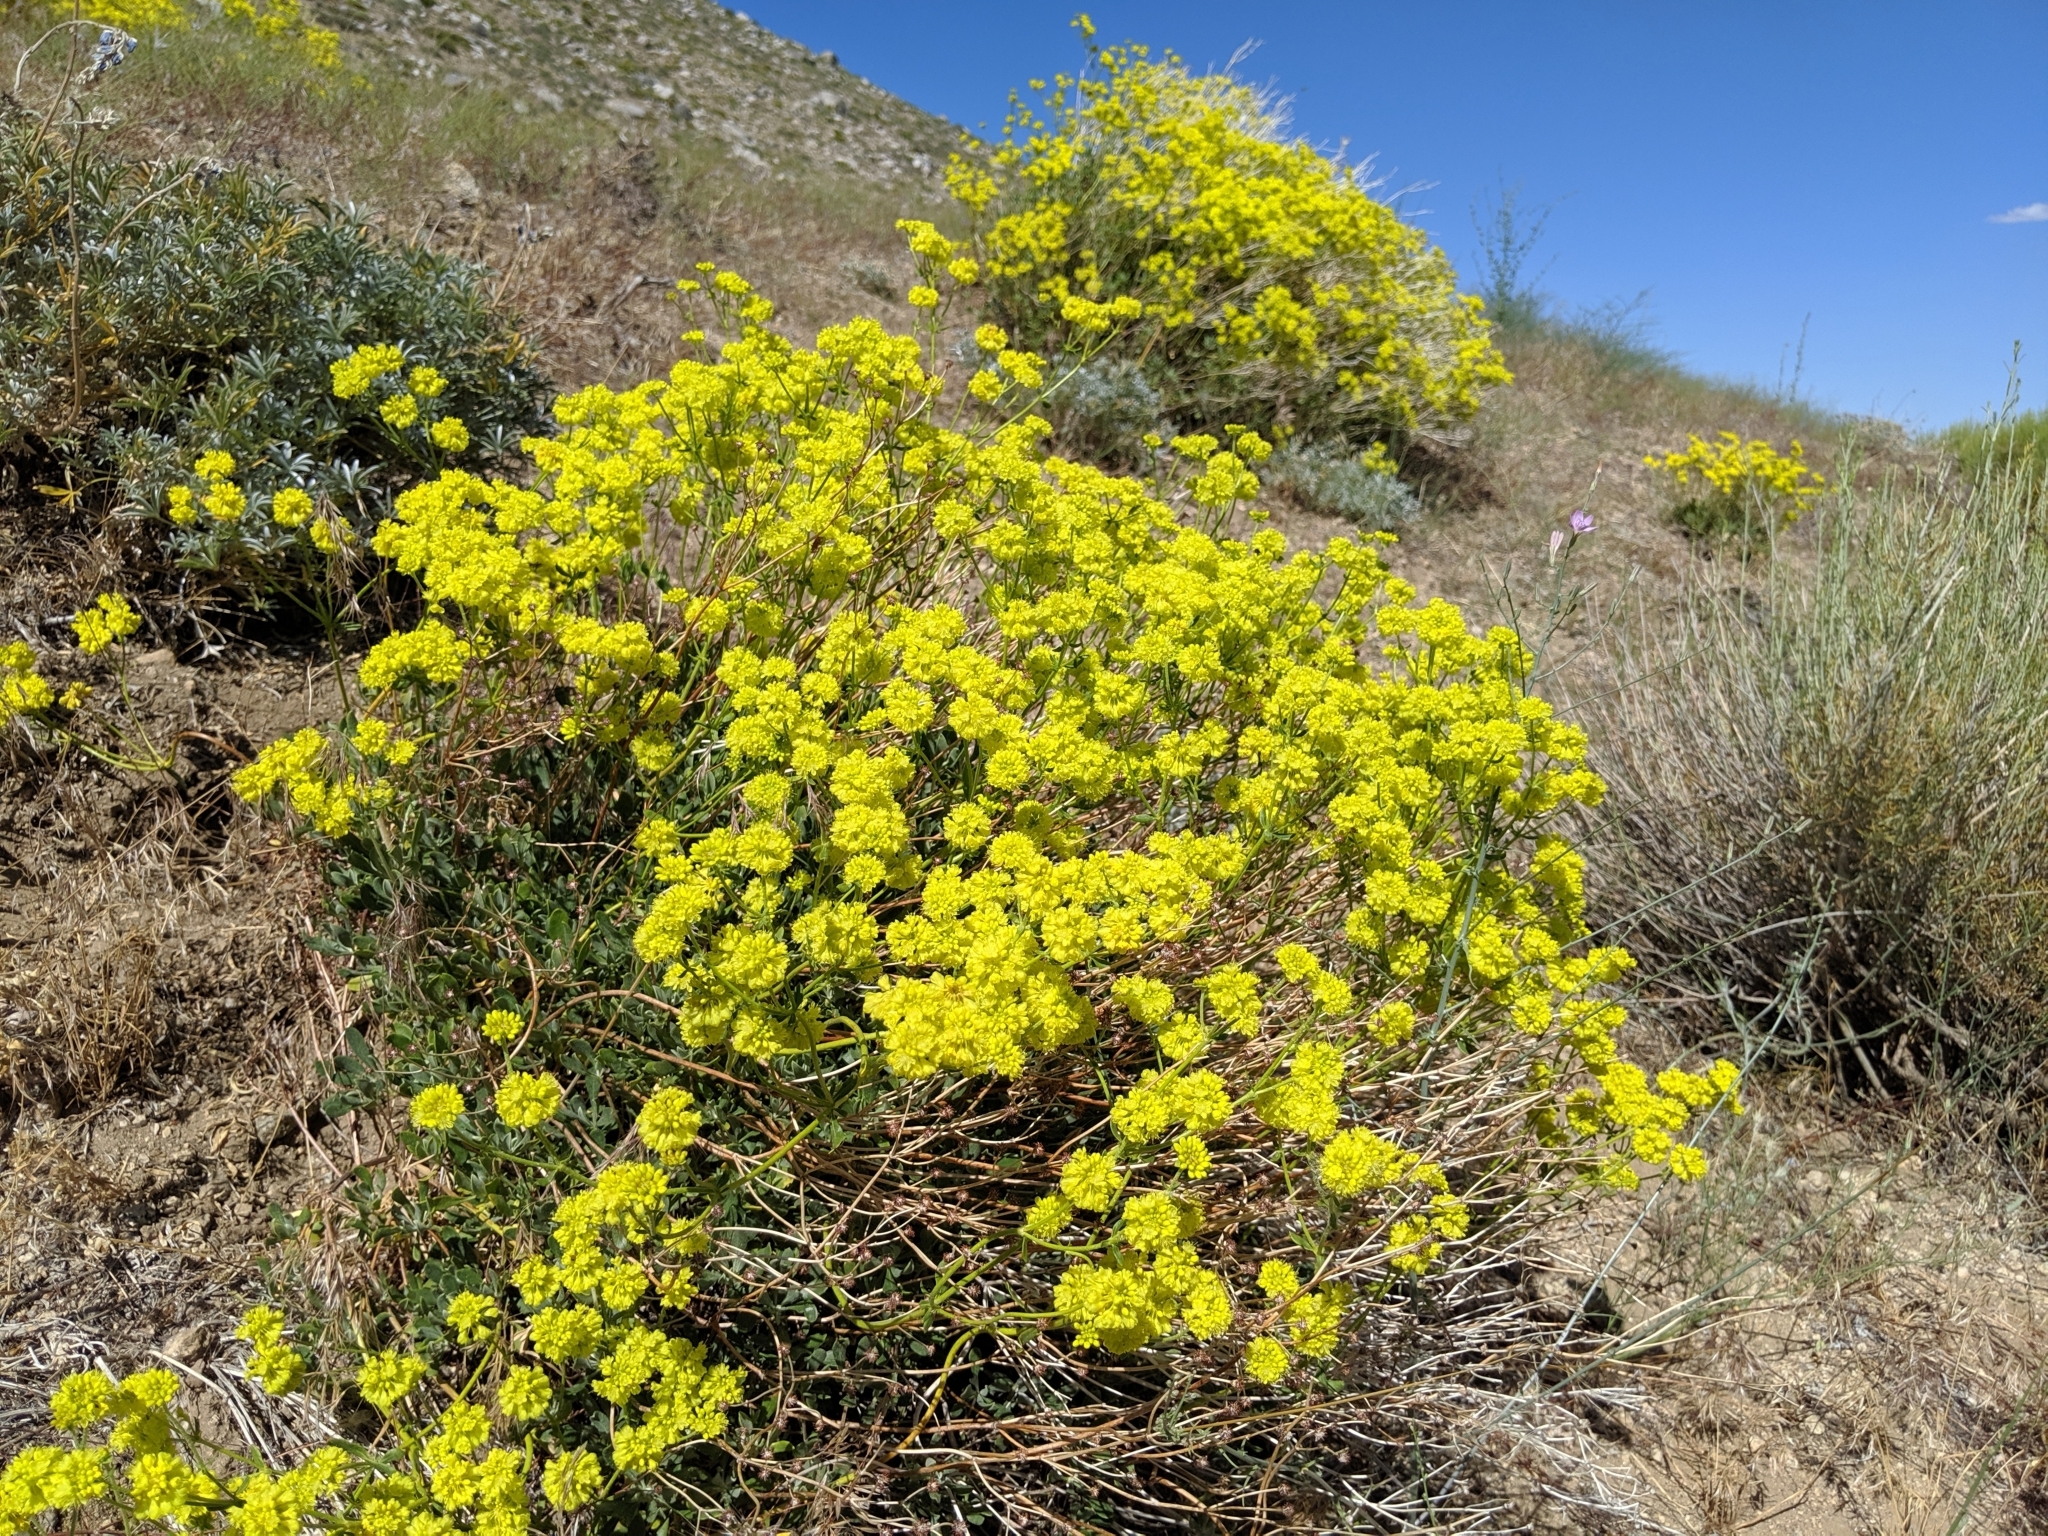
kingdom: Plantae
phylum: Tracheophyta
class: Magnoliopsida
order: Caryophyllales
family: Polygonaceae
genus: Eriogonum
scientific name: Eriogonum umbellatum
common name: Sulfur-buckwheat
